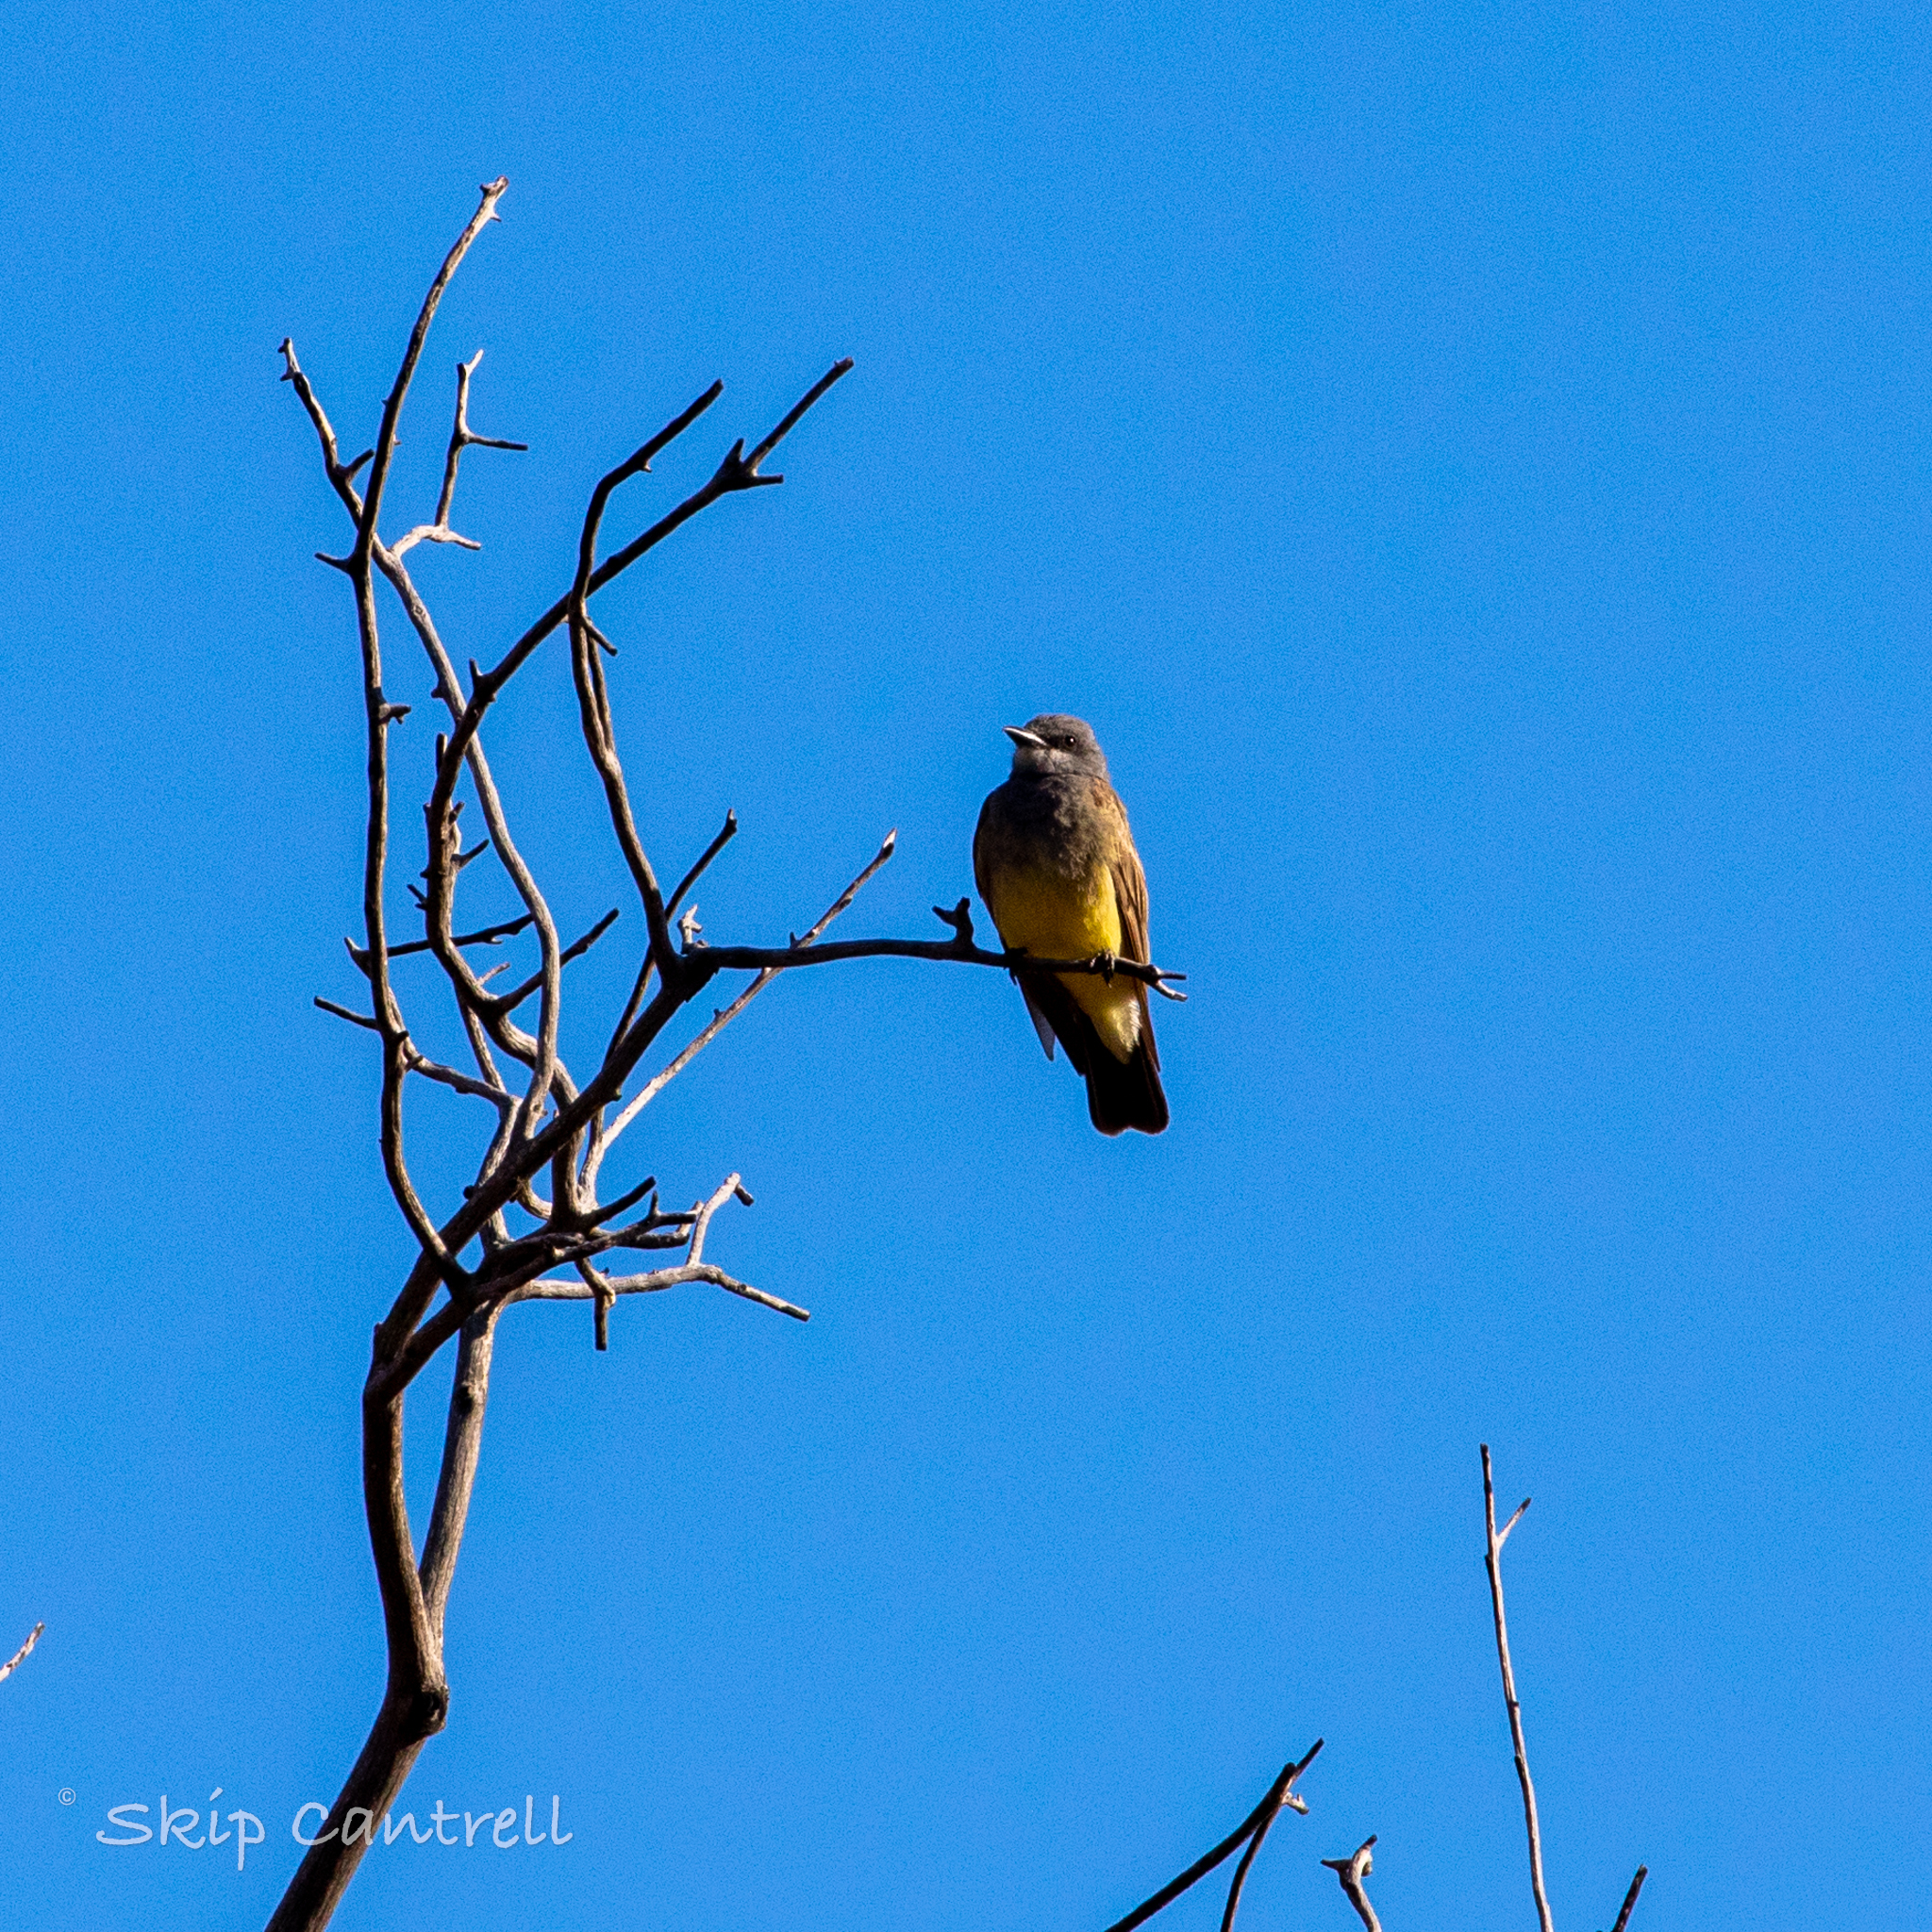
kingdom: Animalia
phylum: Chordata
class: Aves
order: Passeriformes
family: Tyrannidae
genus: Tyrannus
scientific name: Tyrannus vociferans
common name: Cassin's kingbird
